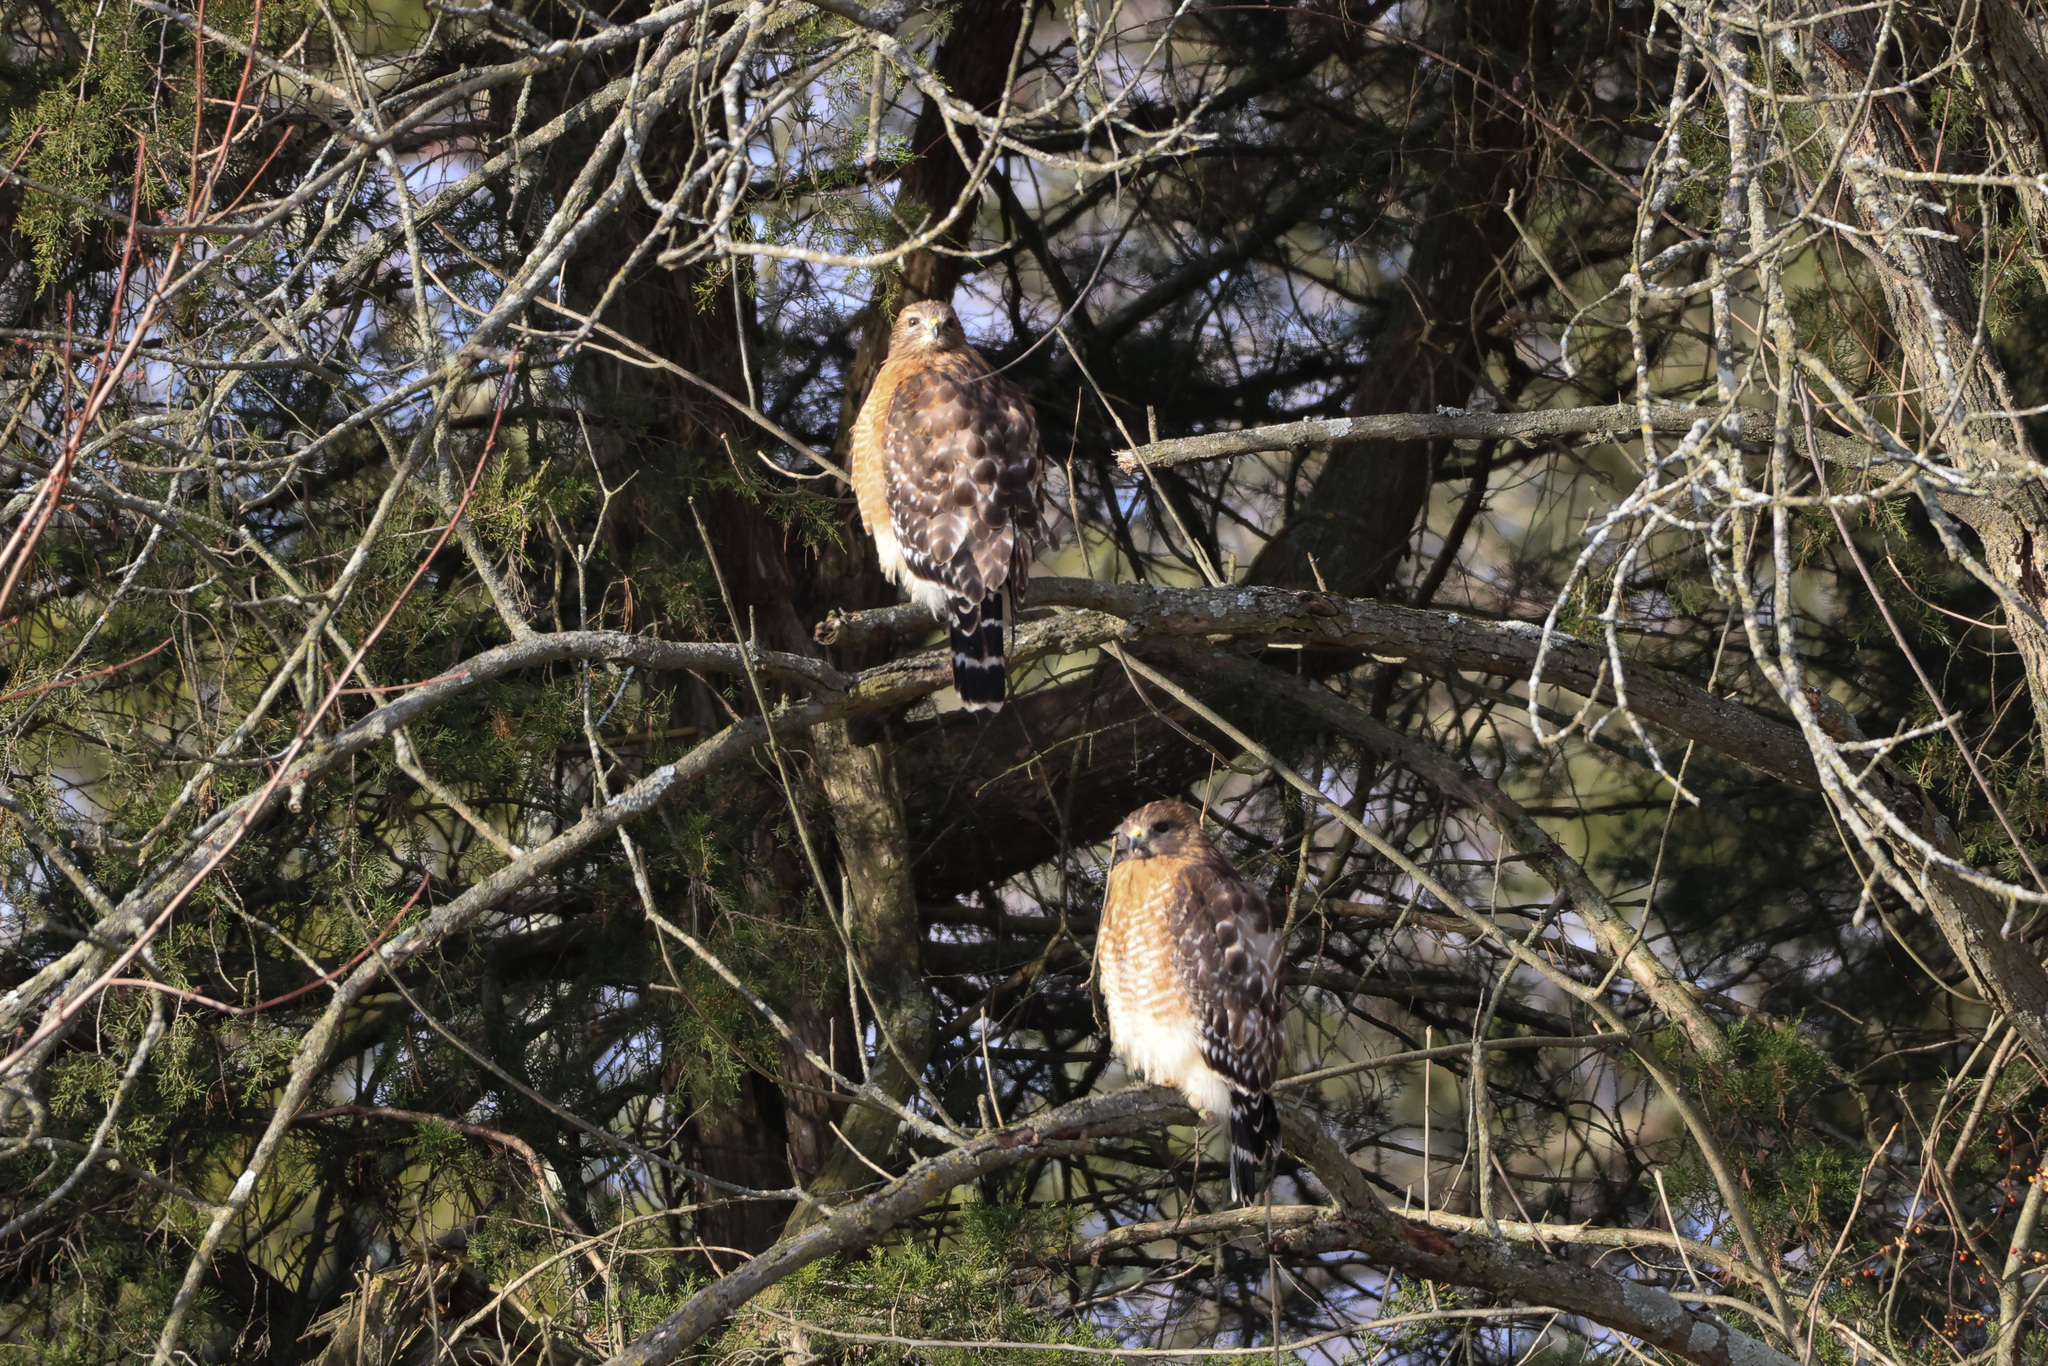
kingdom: Animalia
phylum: Chordata
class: Aves
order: Accipitriformes
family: Accipitridae
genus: Buteo
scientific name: Buteo lineatus
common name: Red-shouldered hawk
